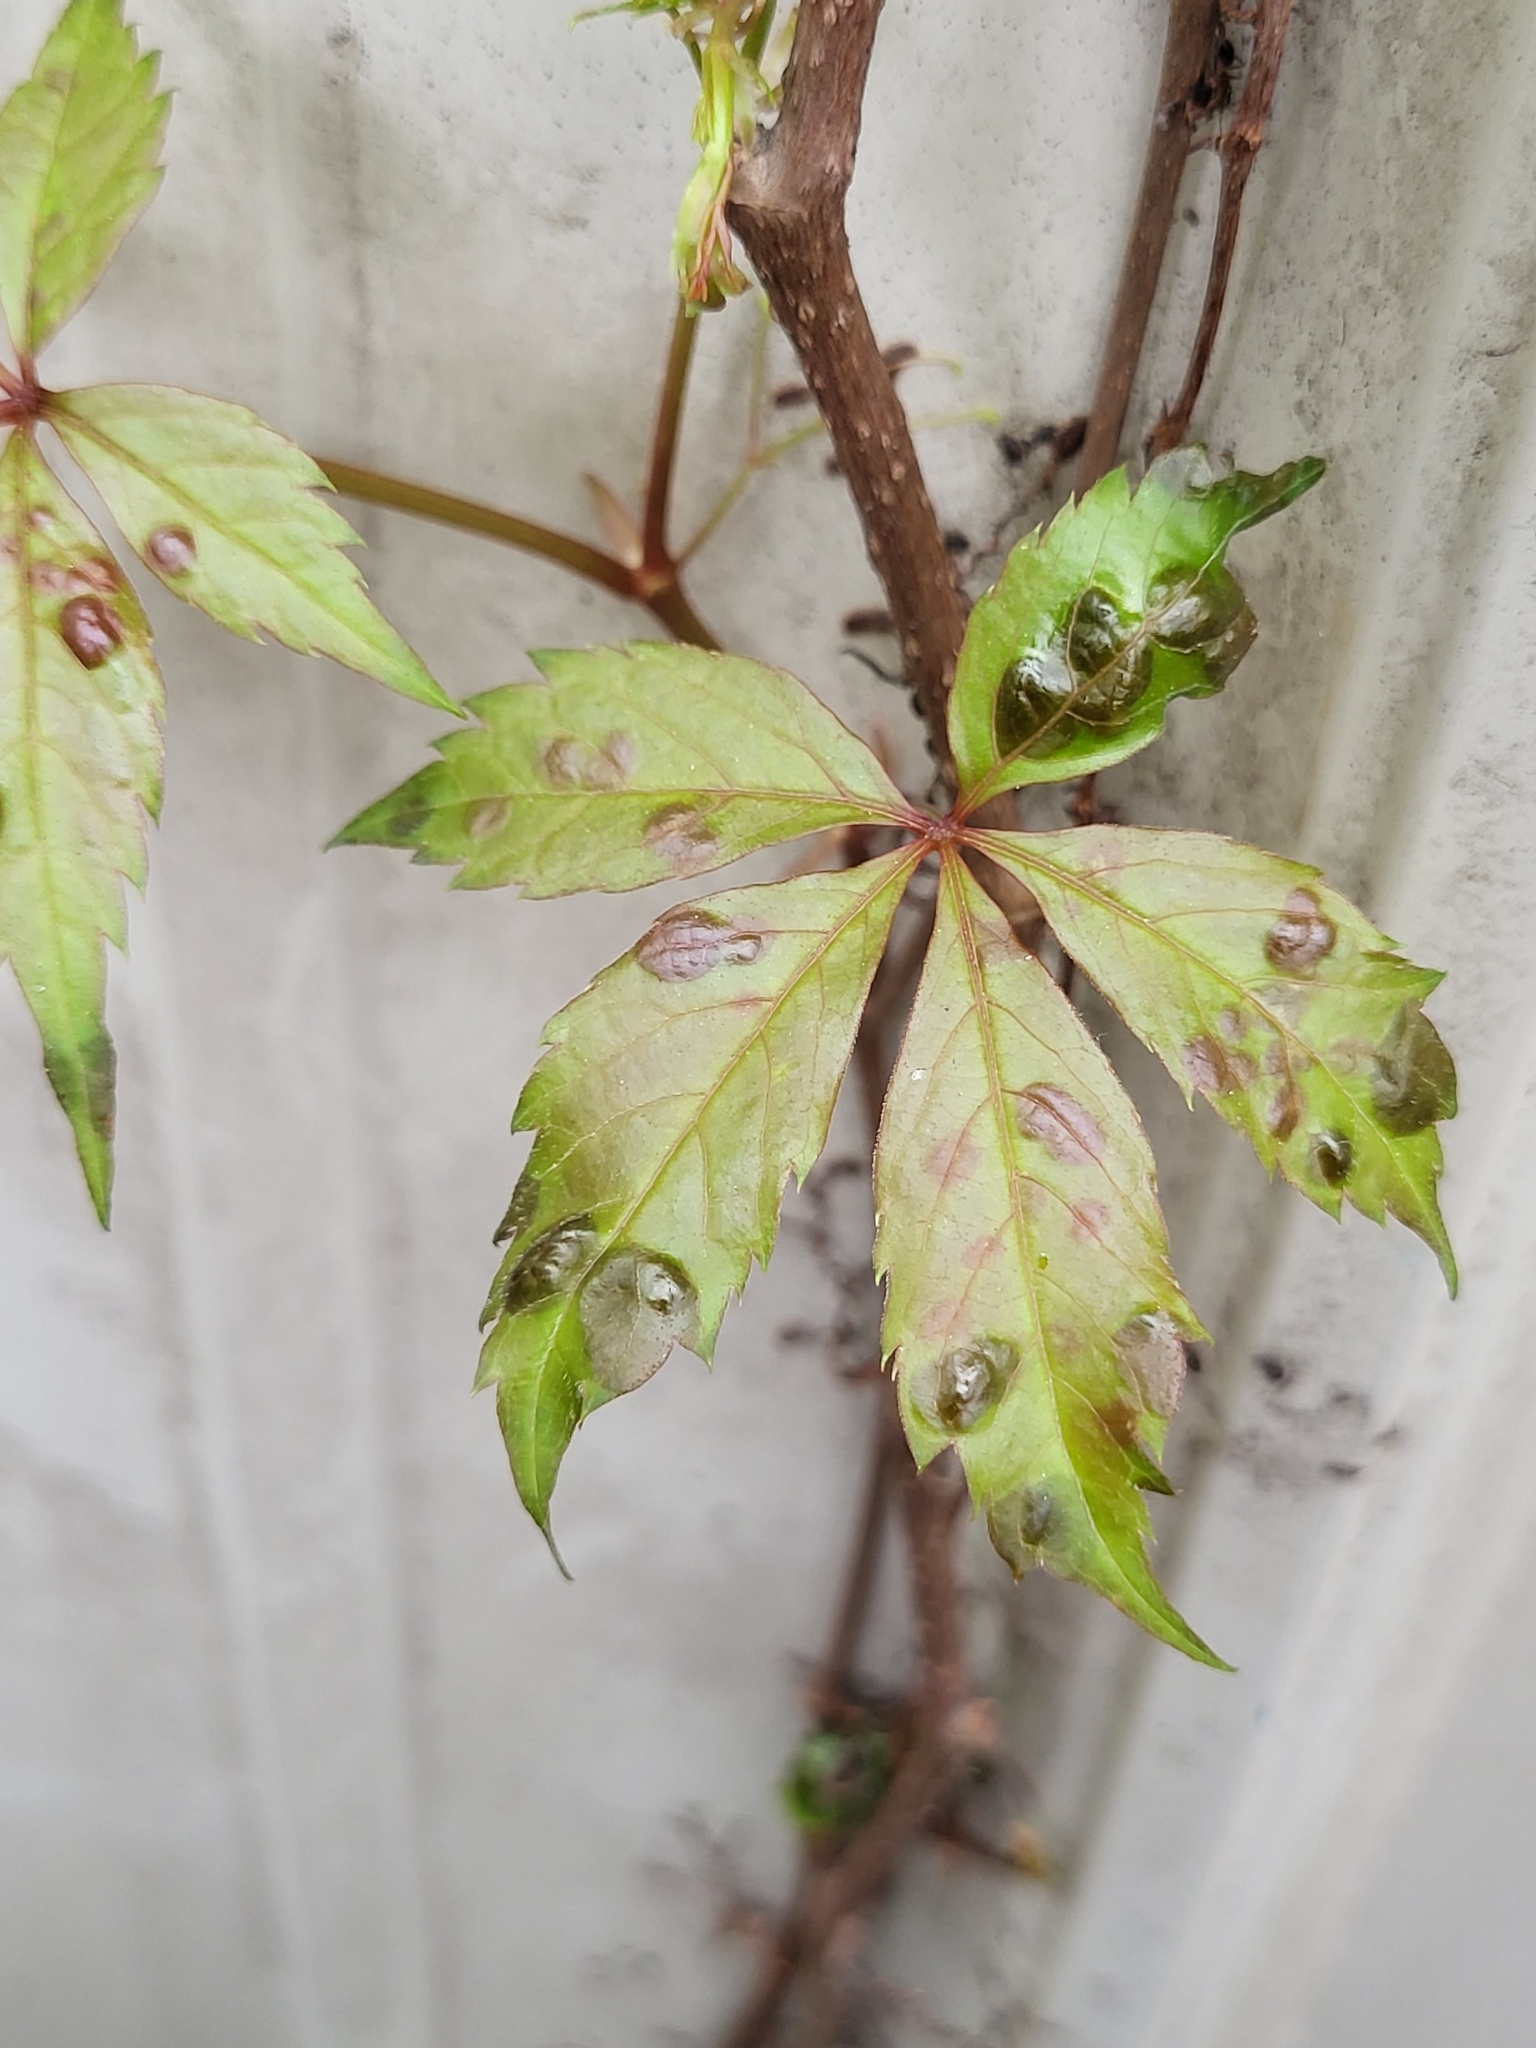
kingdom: Fungi
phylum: Ascomycota
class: Dothideomycetes
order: Botryosphaeriales
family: Phyllostictaceae
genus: Phyllosticta
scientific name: Phyllosticta parthenocissi
